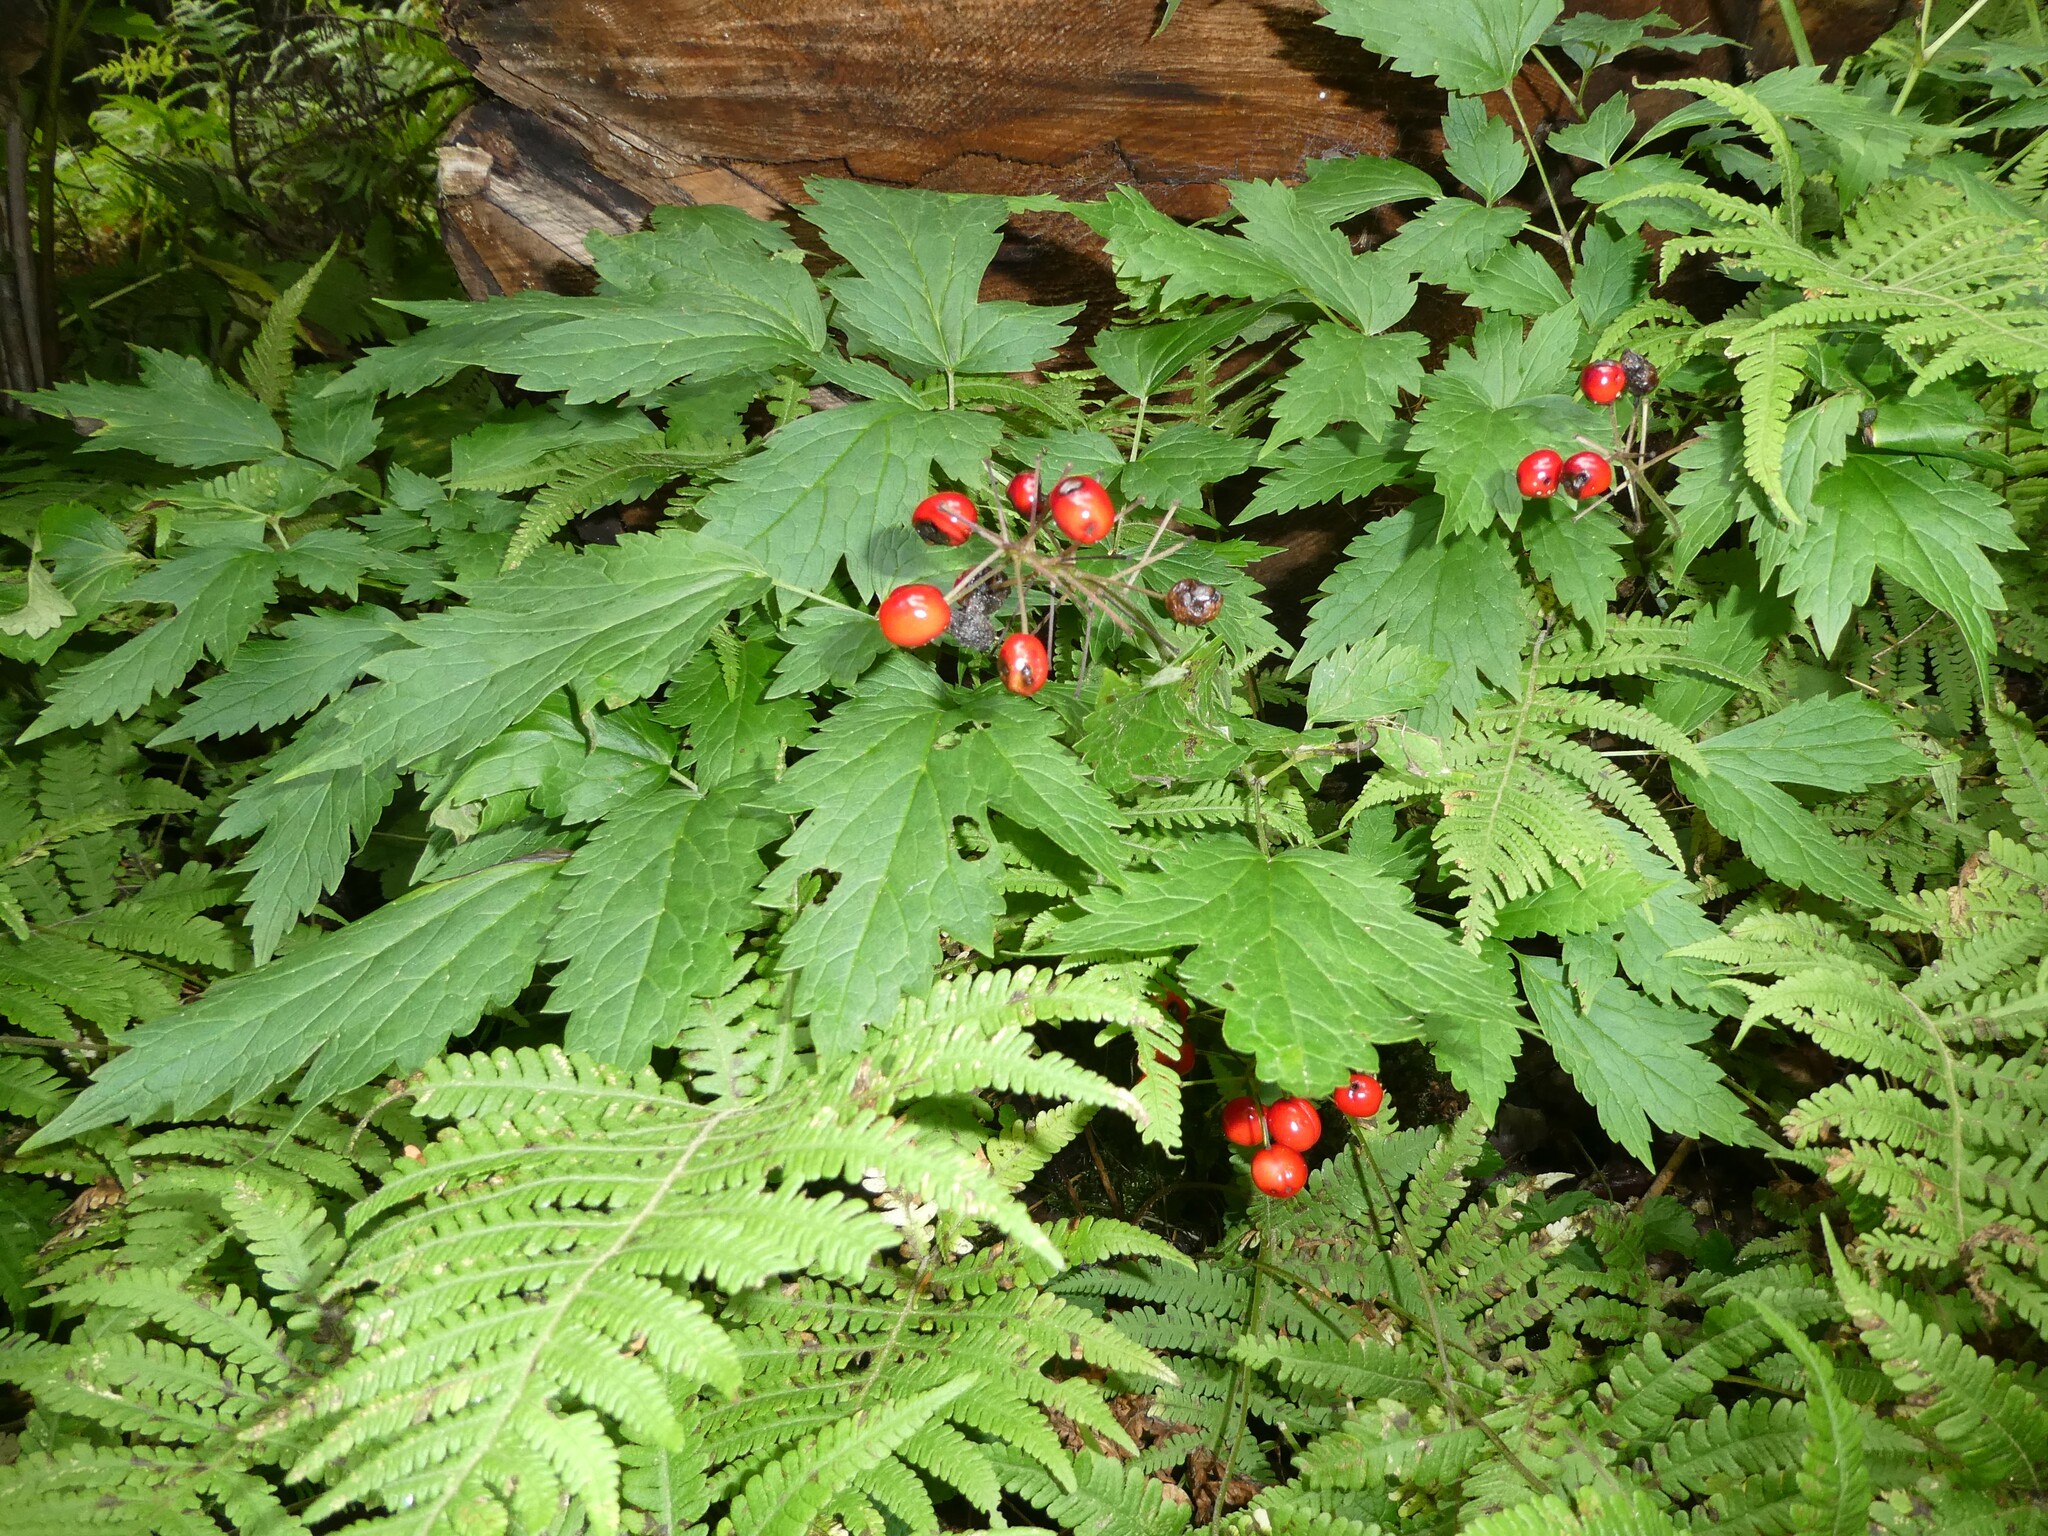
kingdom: Plantae
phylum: Tracheophyta
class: Magnoliopsida
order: Ranunculales
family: Ranunculaceae
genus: Actaea
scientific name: Actaea rubra
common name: Red baneberry
